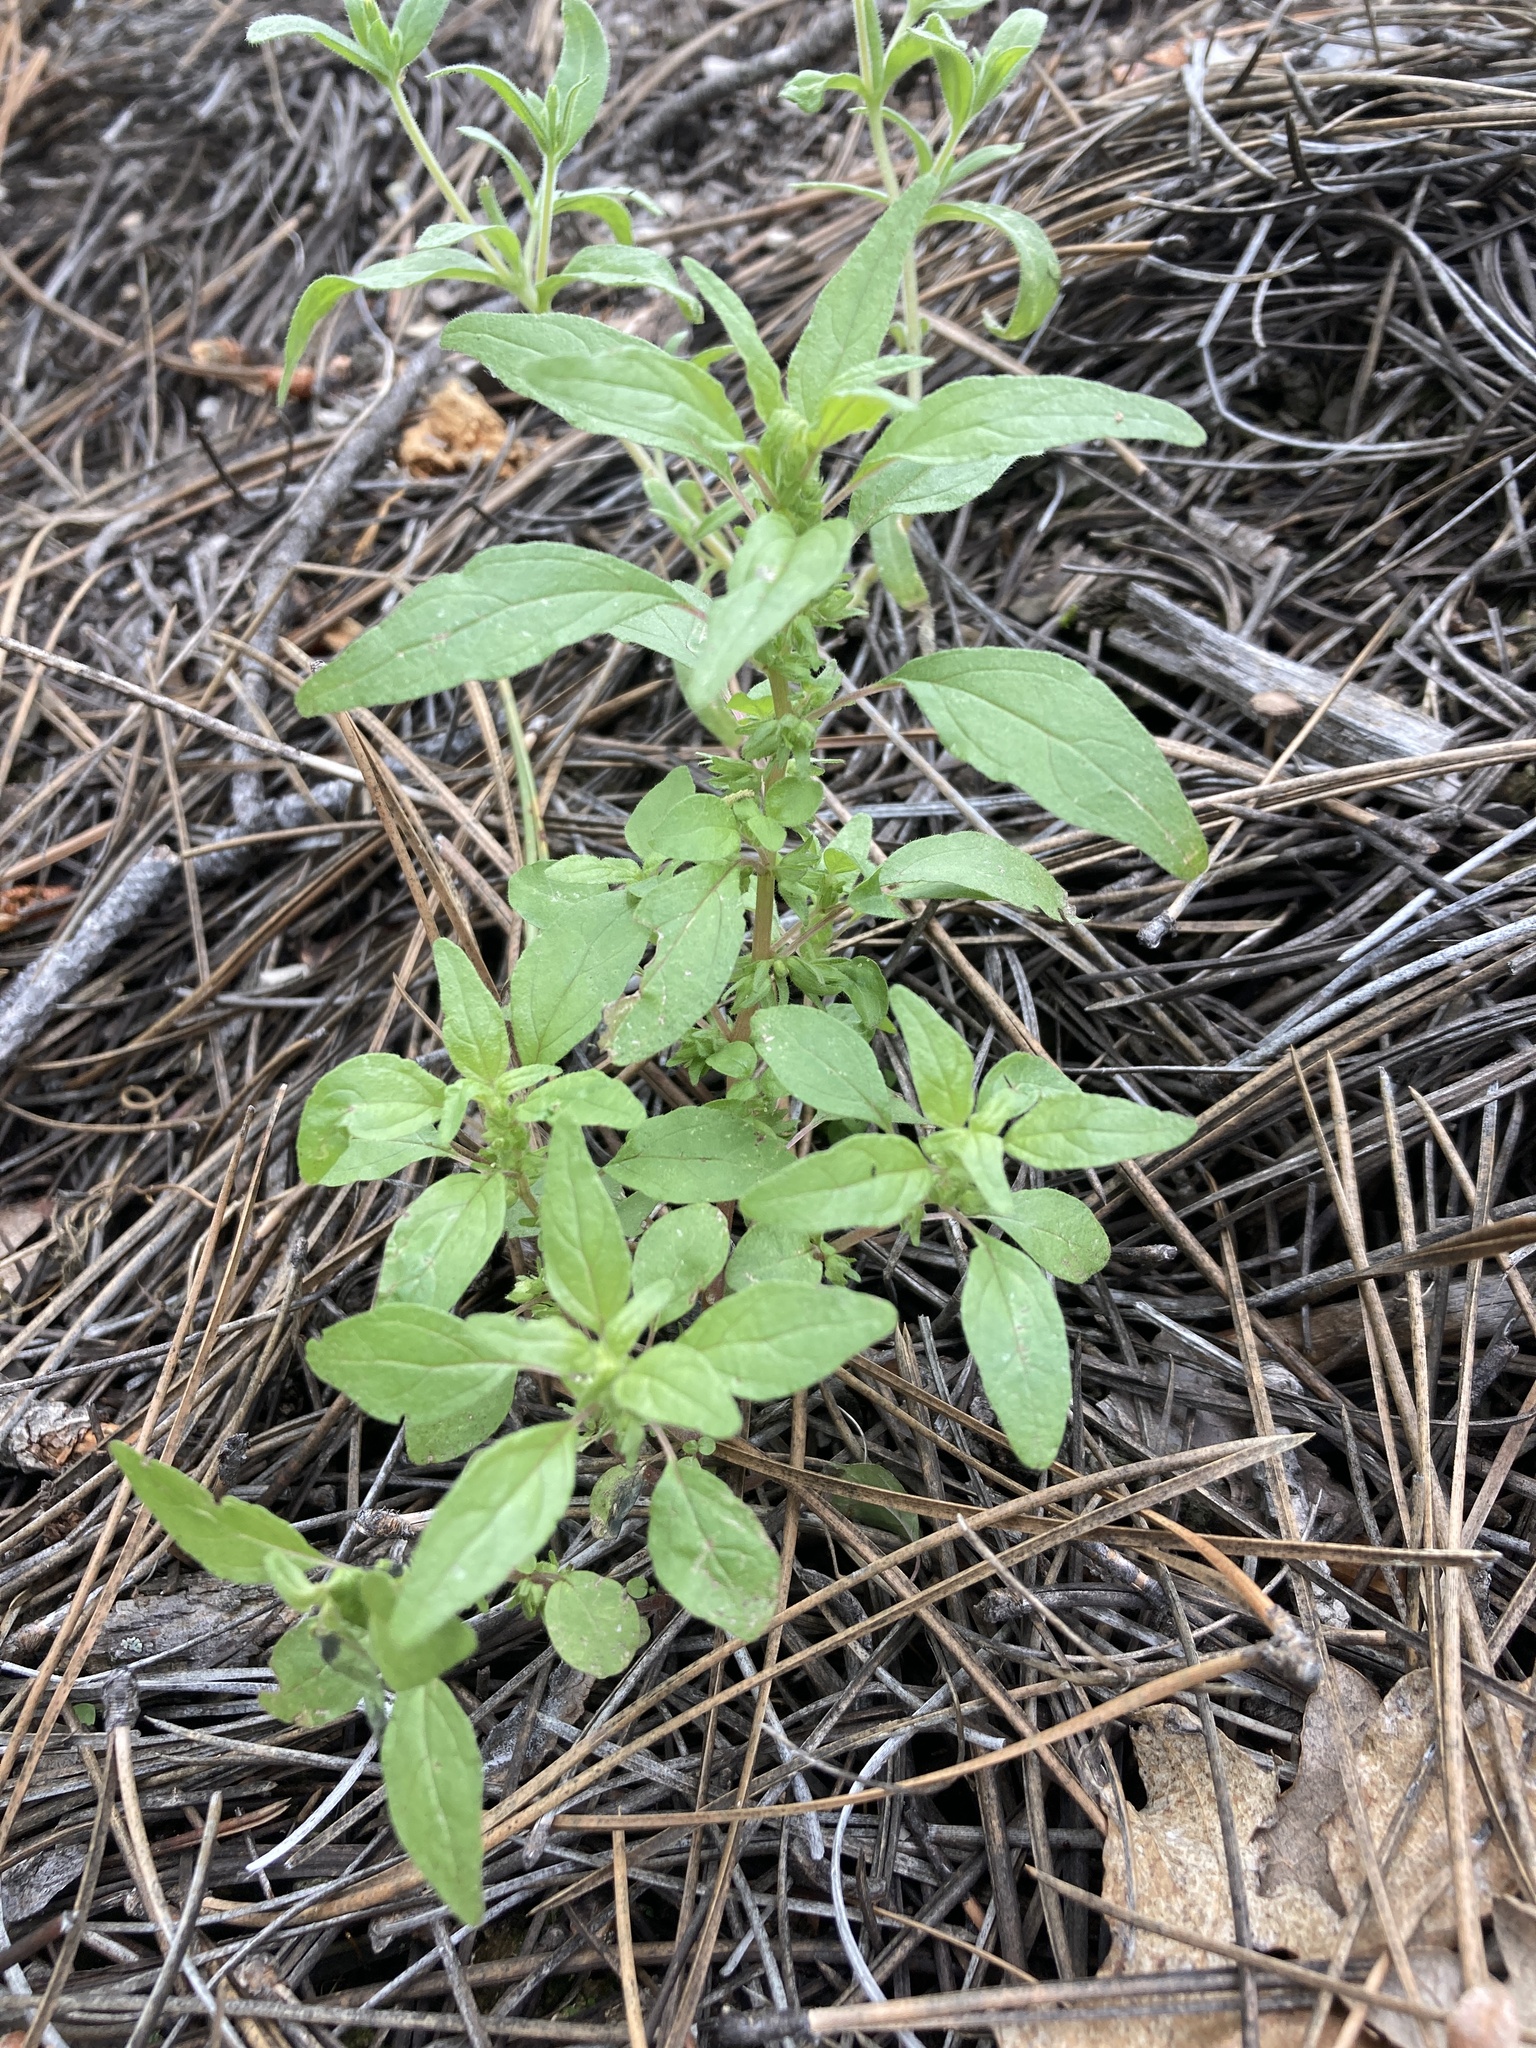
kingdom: Plantae
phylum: Tracheophyta
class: Magnoliopsida
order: Rosales
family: Urticaceae
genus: Parietaria
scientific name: Parietaria pensylvanica
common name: Pennsylvania pellitory
